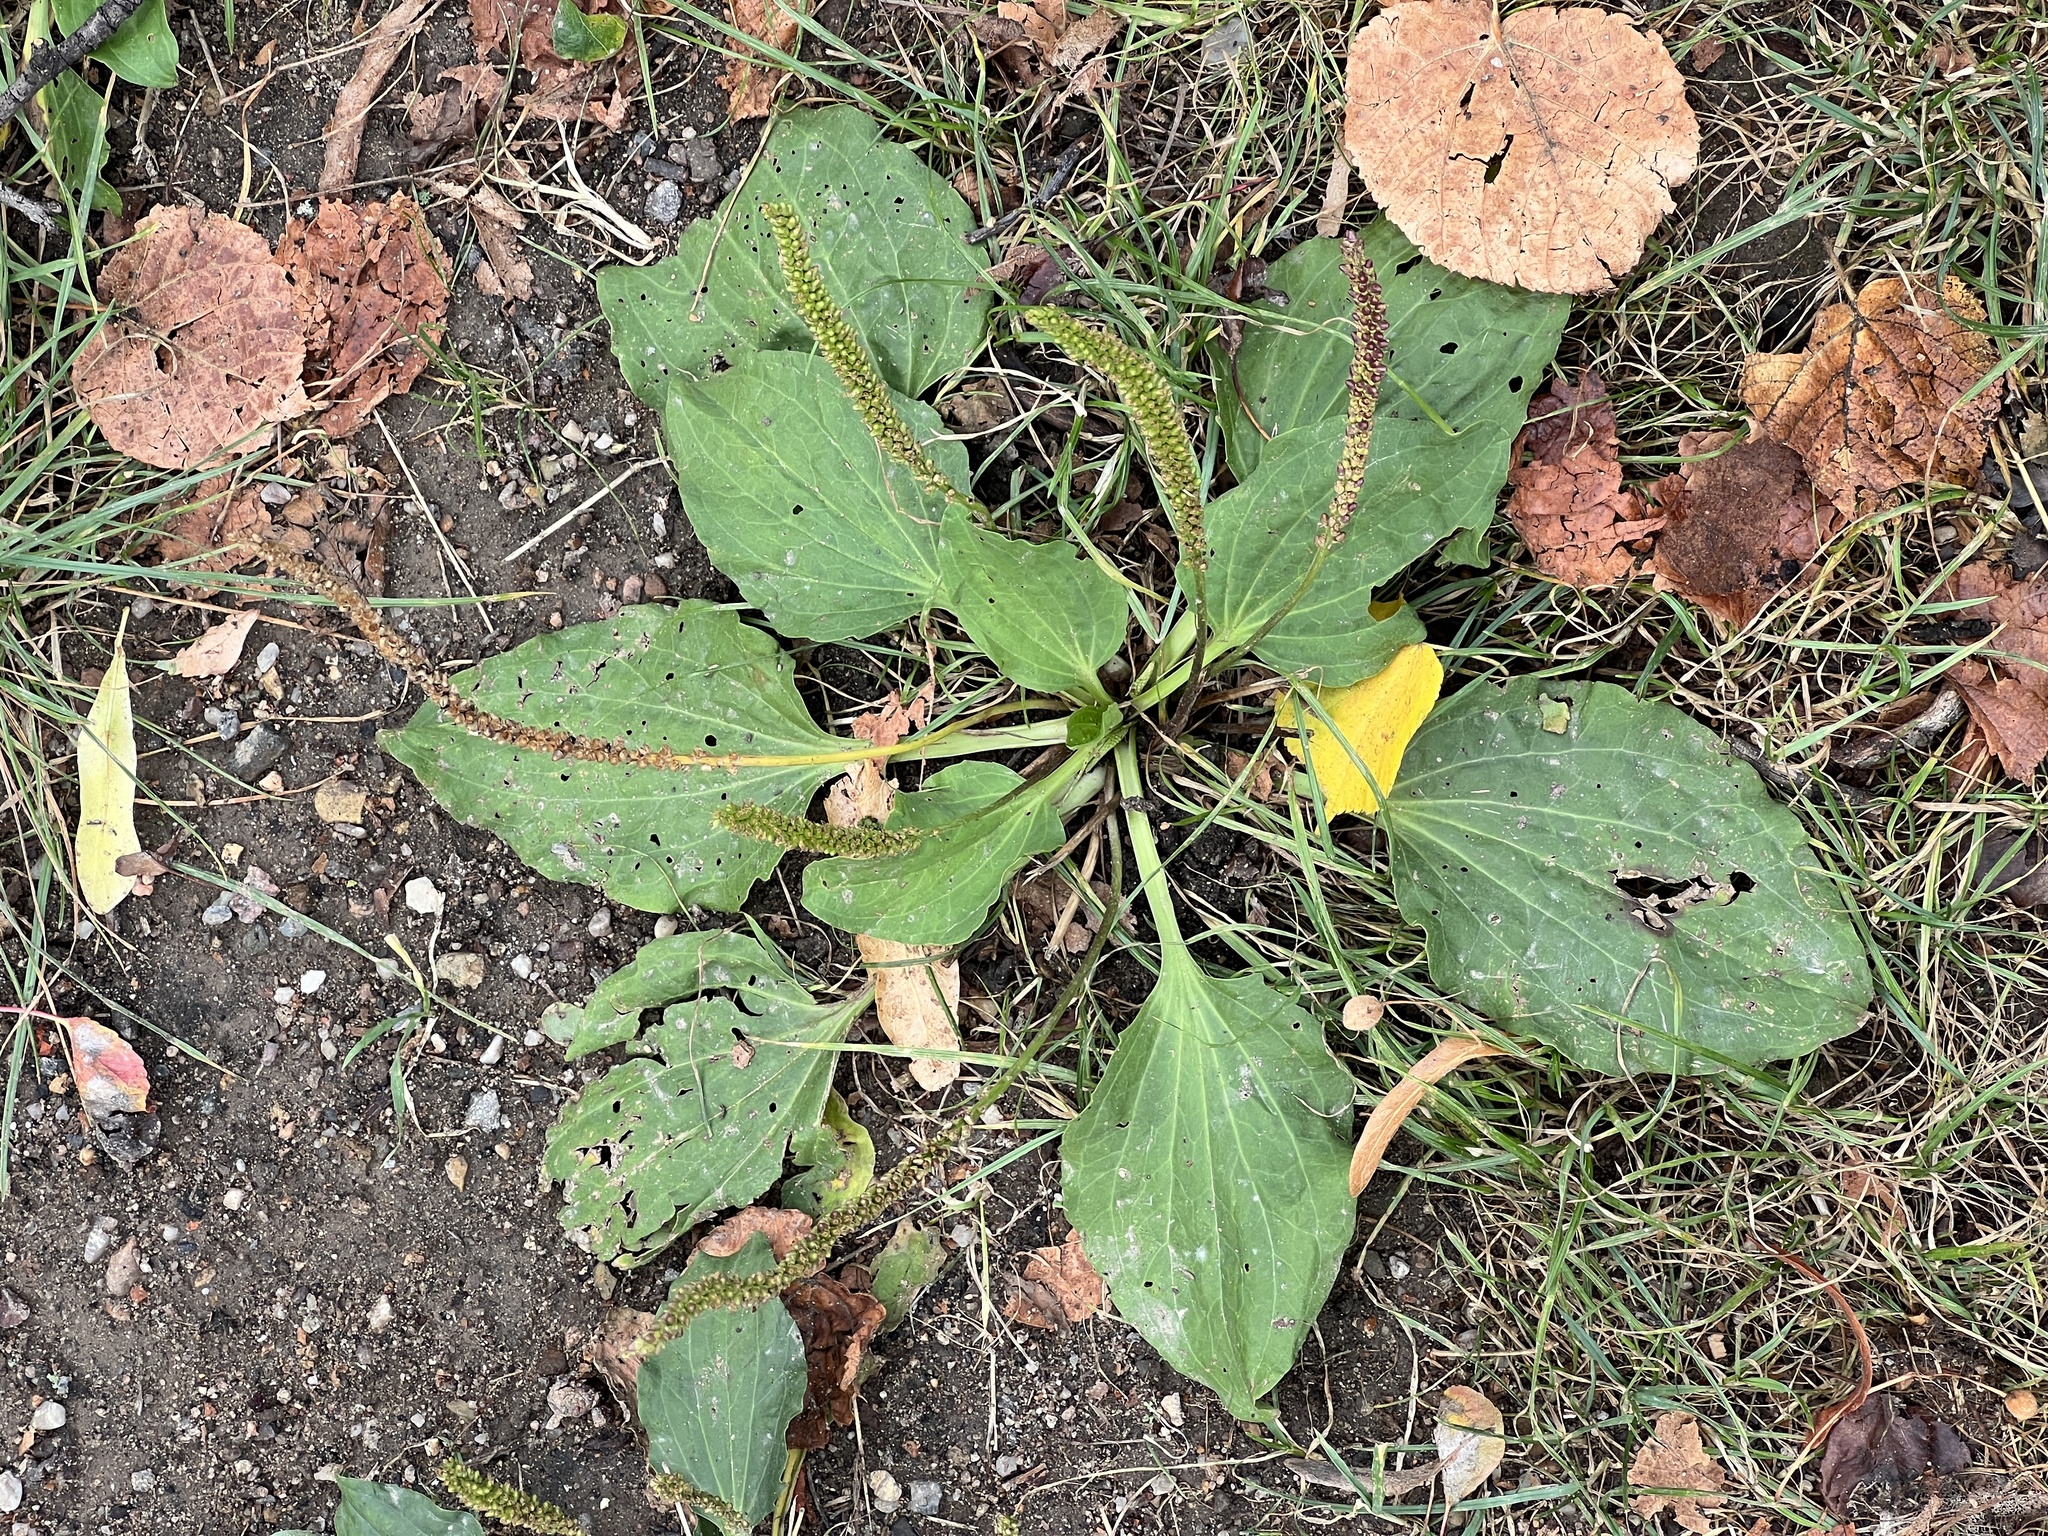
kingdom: Plantae
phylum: Tracheophyta
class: Magnoliopsida
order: Lamiales
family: Plantaginaceae
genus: Plantago
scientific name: Plantago major
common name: Common plantain
